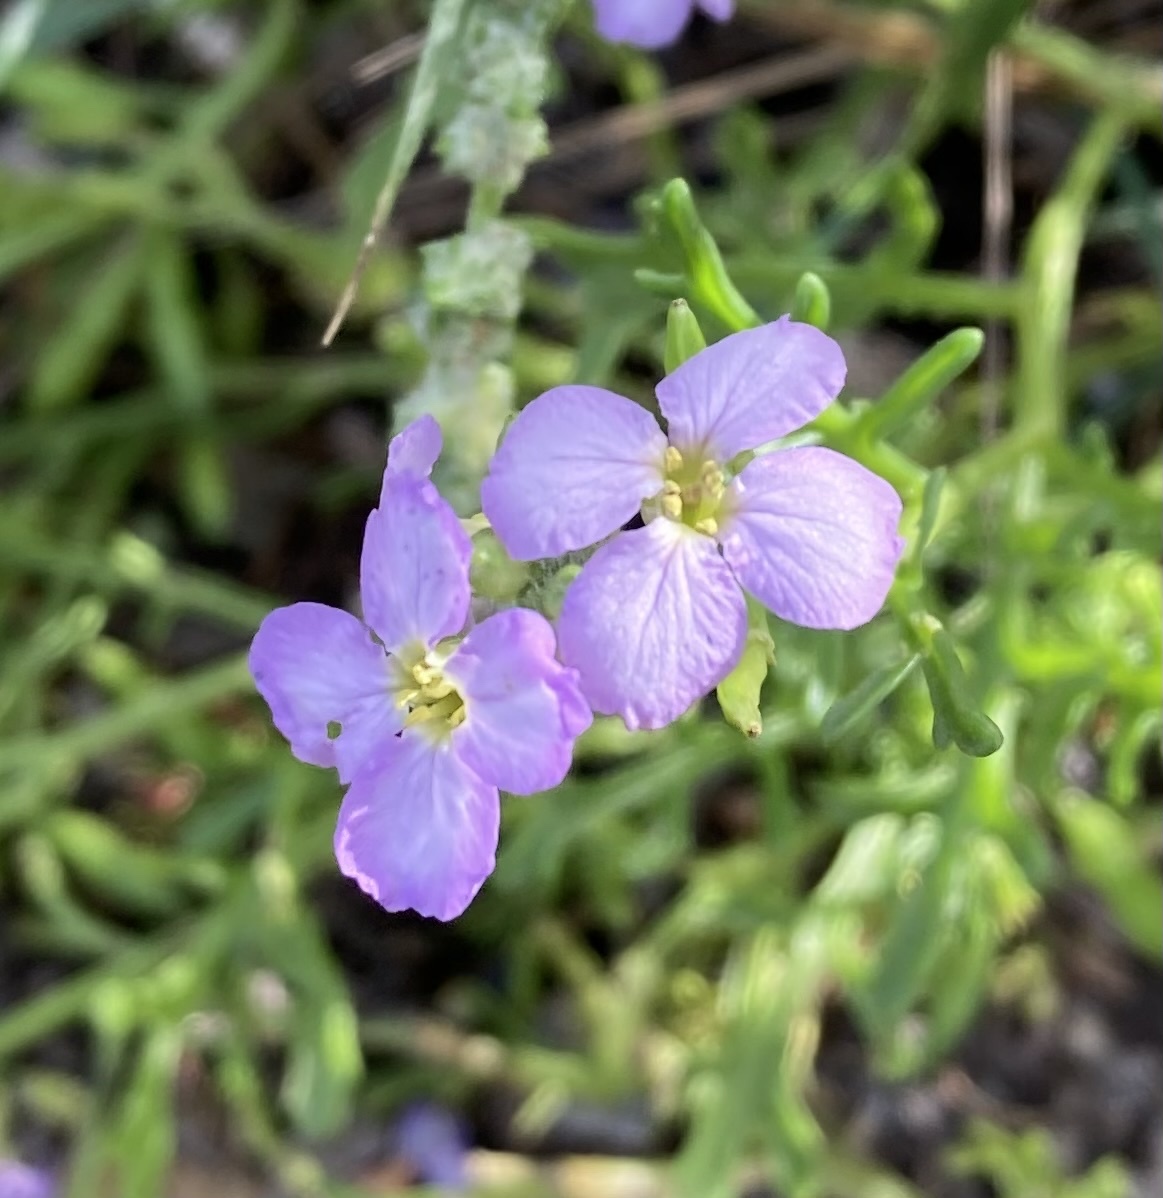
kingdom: Plantae
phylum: Tracheophyta
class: Magnoliopsida
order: Brassicales
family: Brassicaceae
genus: Cakile
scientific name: Cakile maritima
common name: Sea rocket
